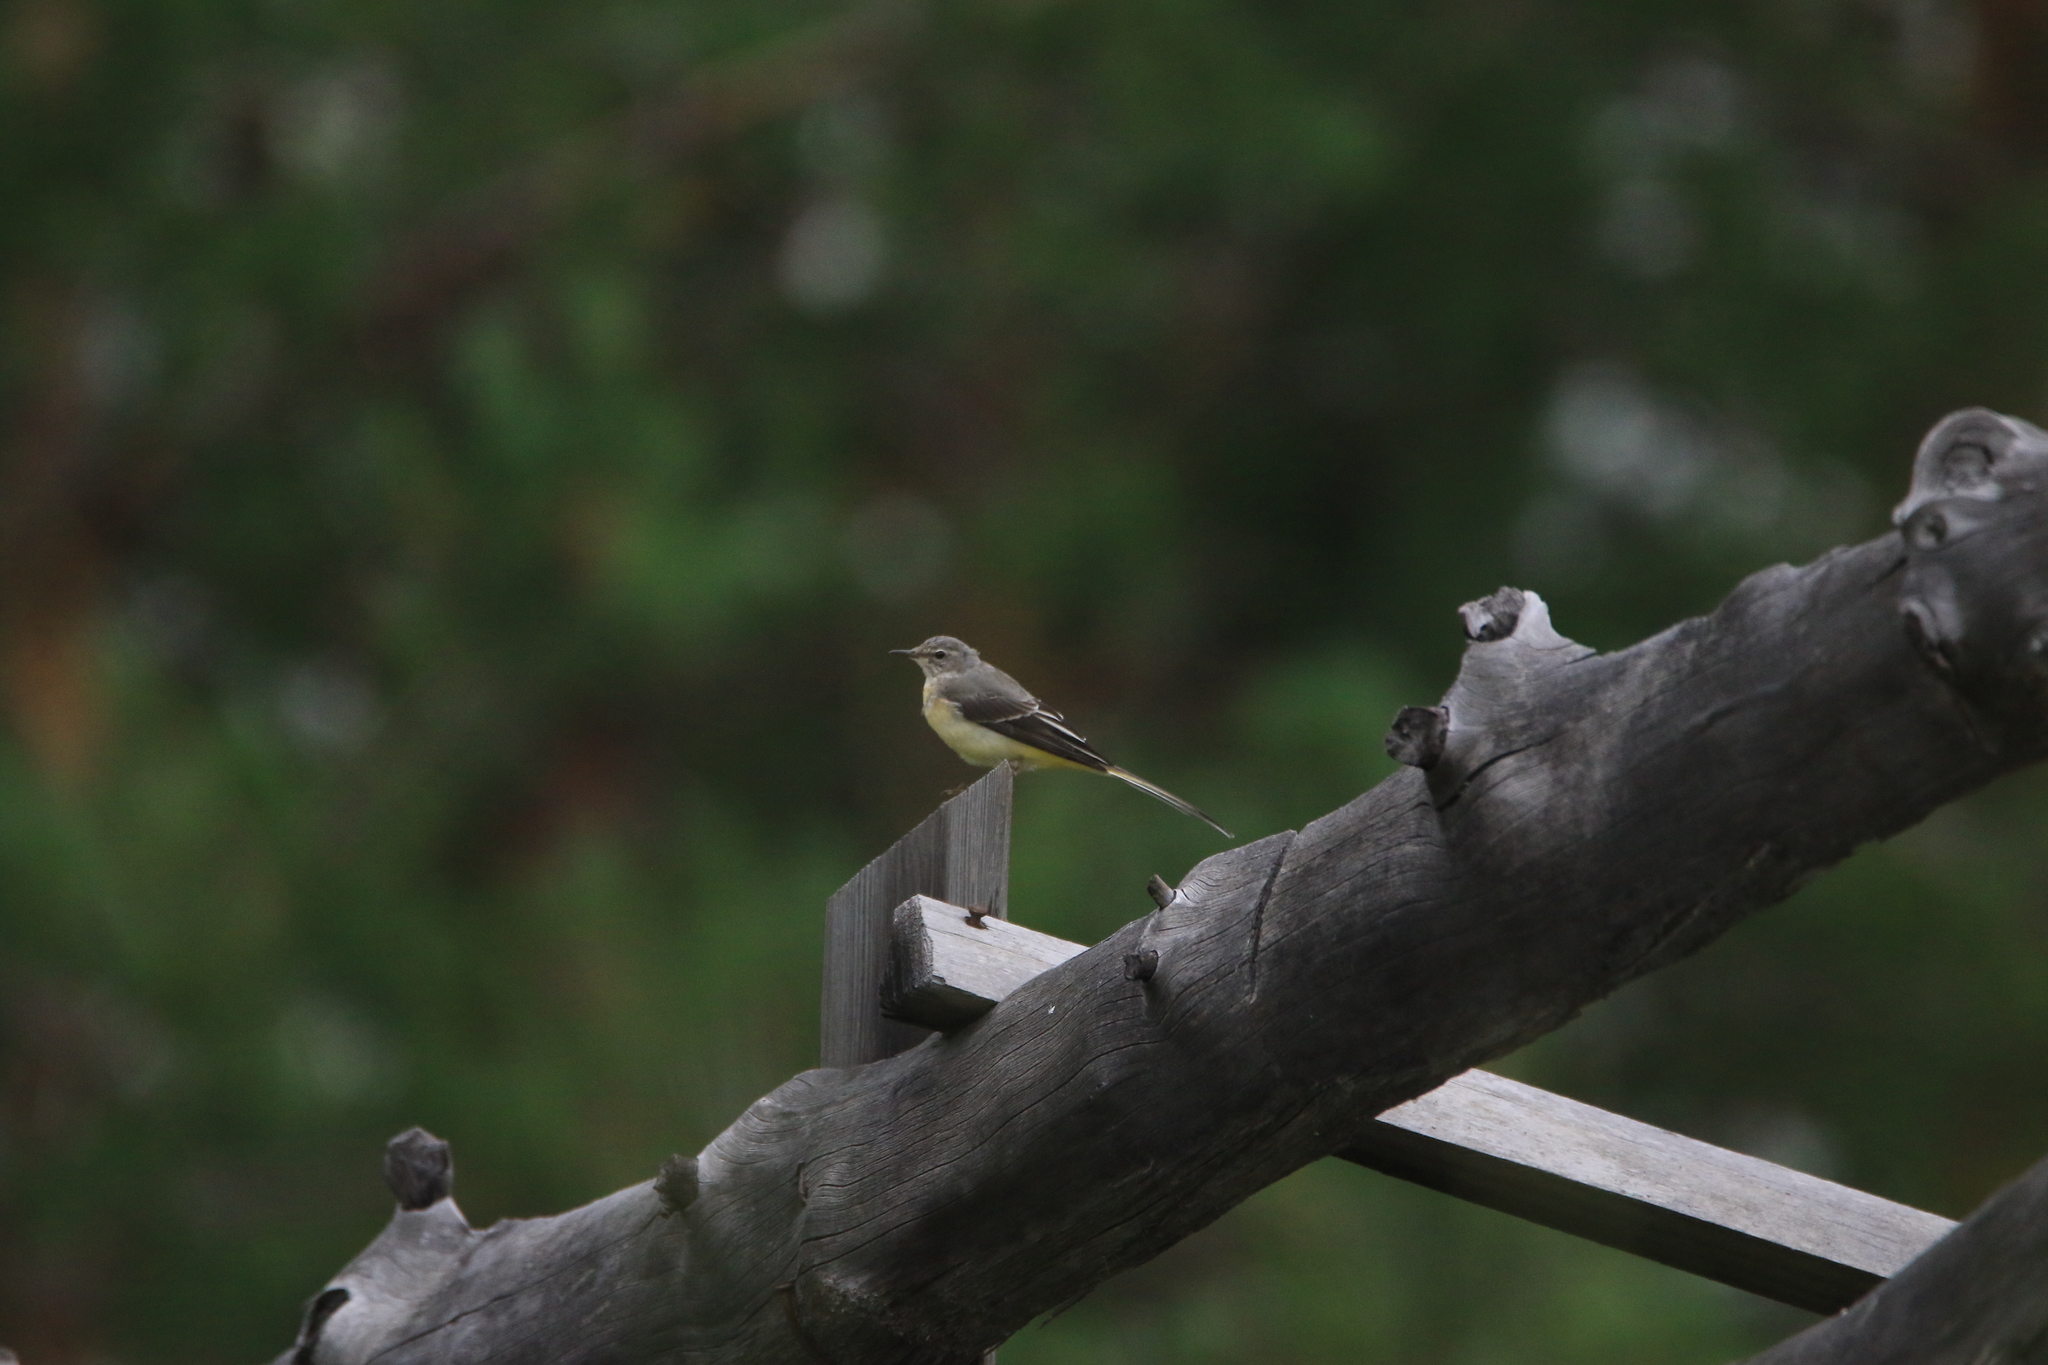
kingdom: Animalia
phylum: Chordata
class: Aves
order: Passeriformes
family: Motacillidae
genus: Motacilla
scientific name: Motacilla cinerea
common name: Grey wagtail
